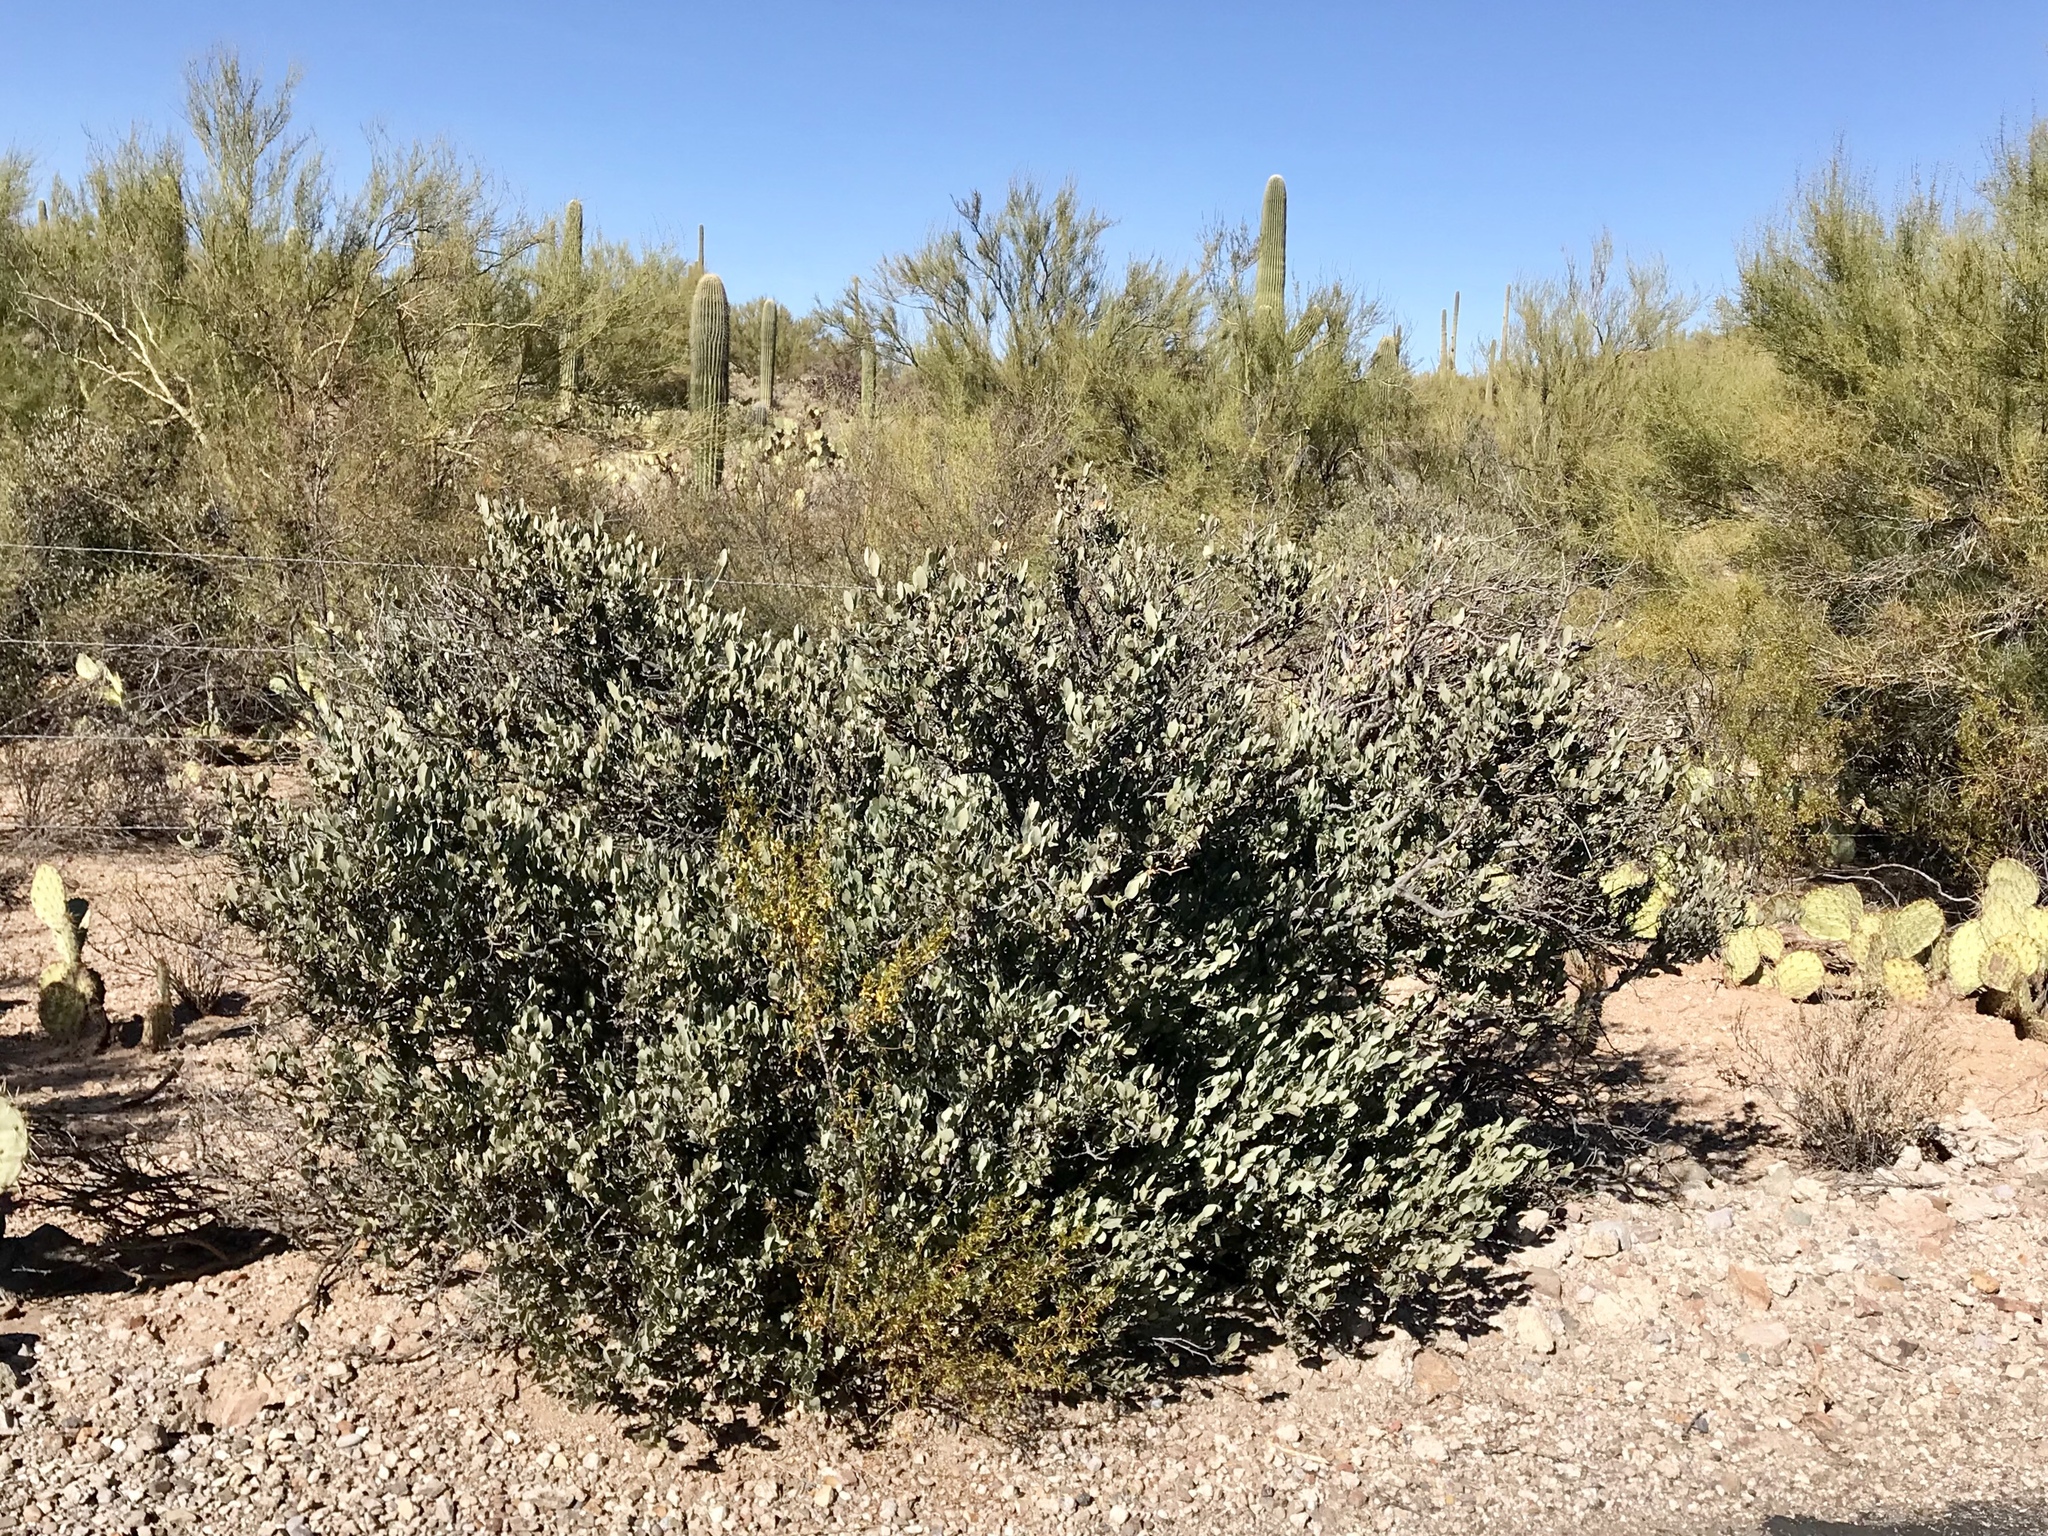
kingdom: Plantae
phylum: Tracheophyta
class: Magnoliopsida
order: Caryophyllales
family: Simmondsiaceae
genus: Simmondsia
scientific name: Simmondsia chinensis
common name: Jojoba
